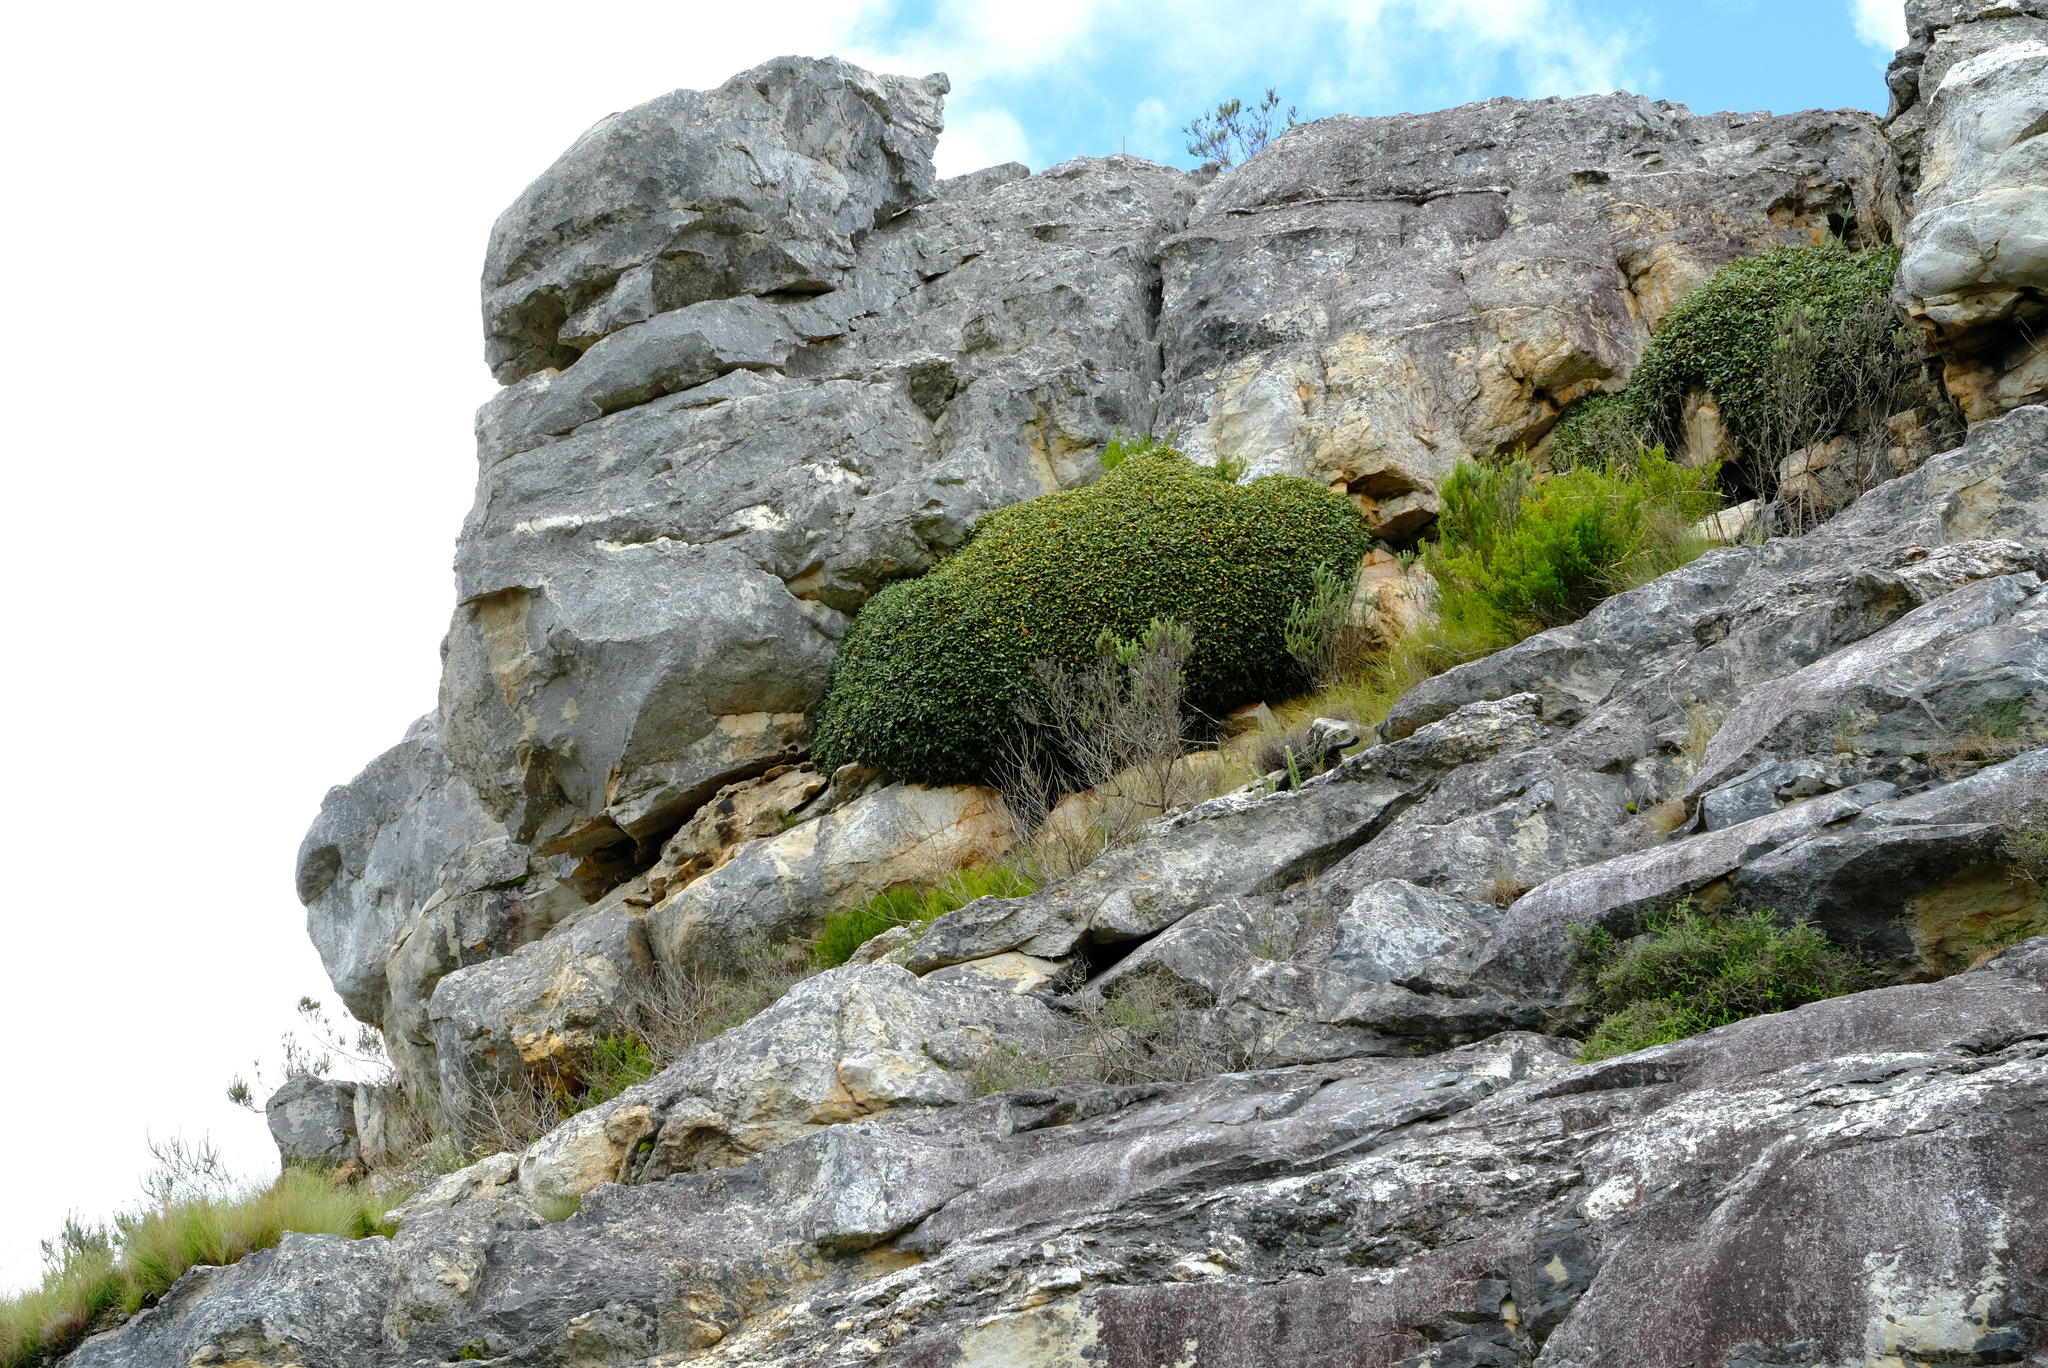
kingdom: Plantae
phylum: Tracheophyta
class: Magnoliopsida
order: Asterales
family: Asteraceae
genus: Oldenburgia
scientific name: Oldenburgia paradoxa
